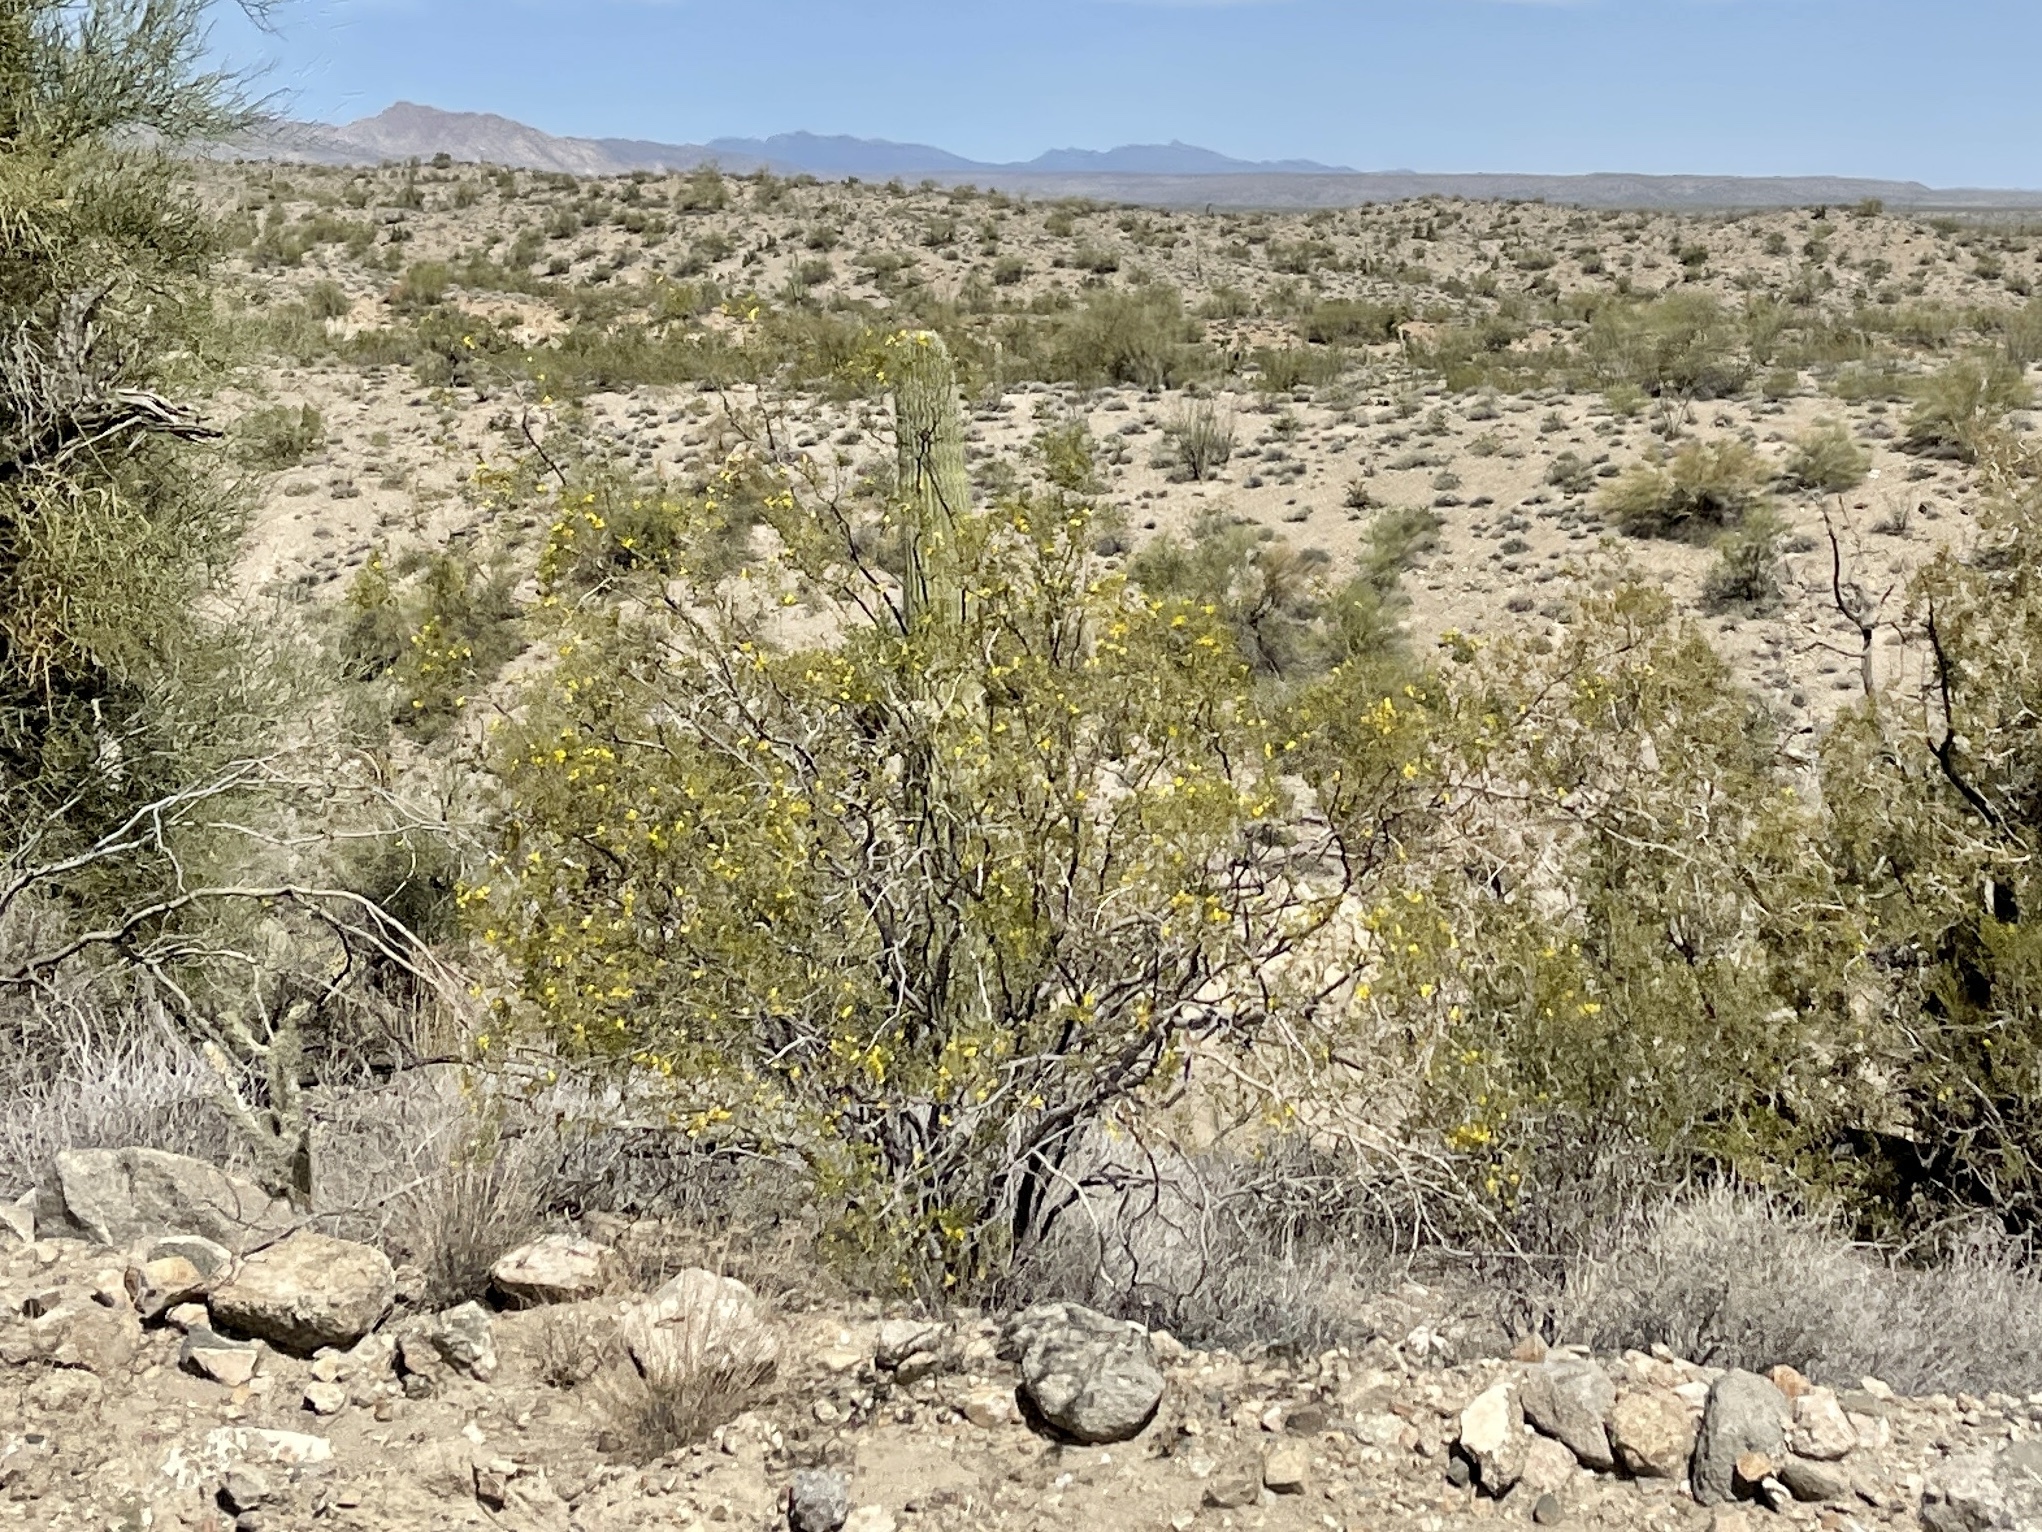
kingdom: Plantae
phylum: Tracheophyta
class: Magnoliopsida
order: Zygophyllales
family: Zygophyllaceae
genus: Larrea
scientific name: Larrea tridentata
